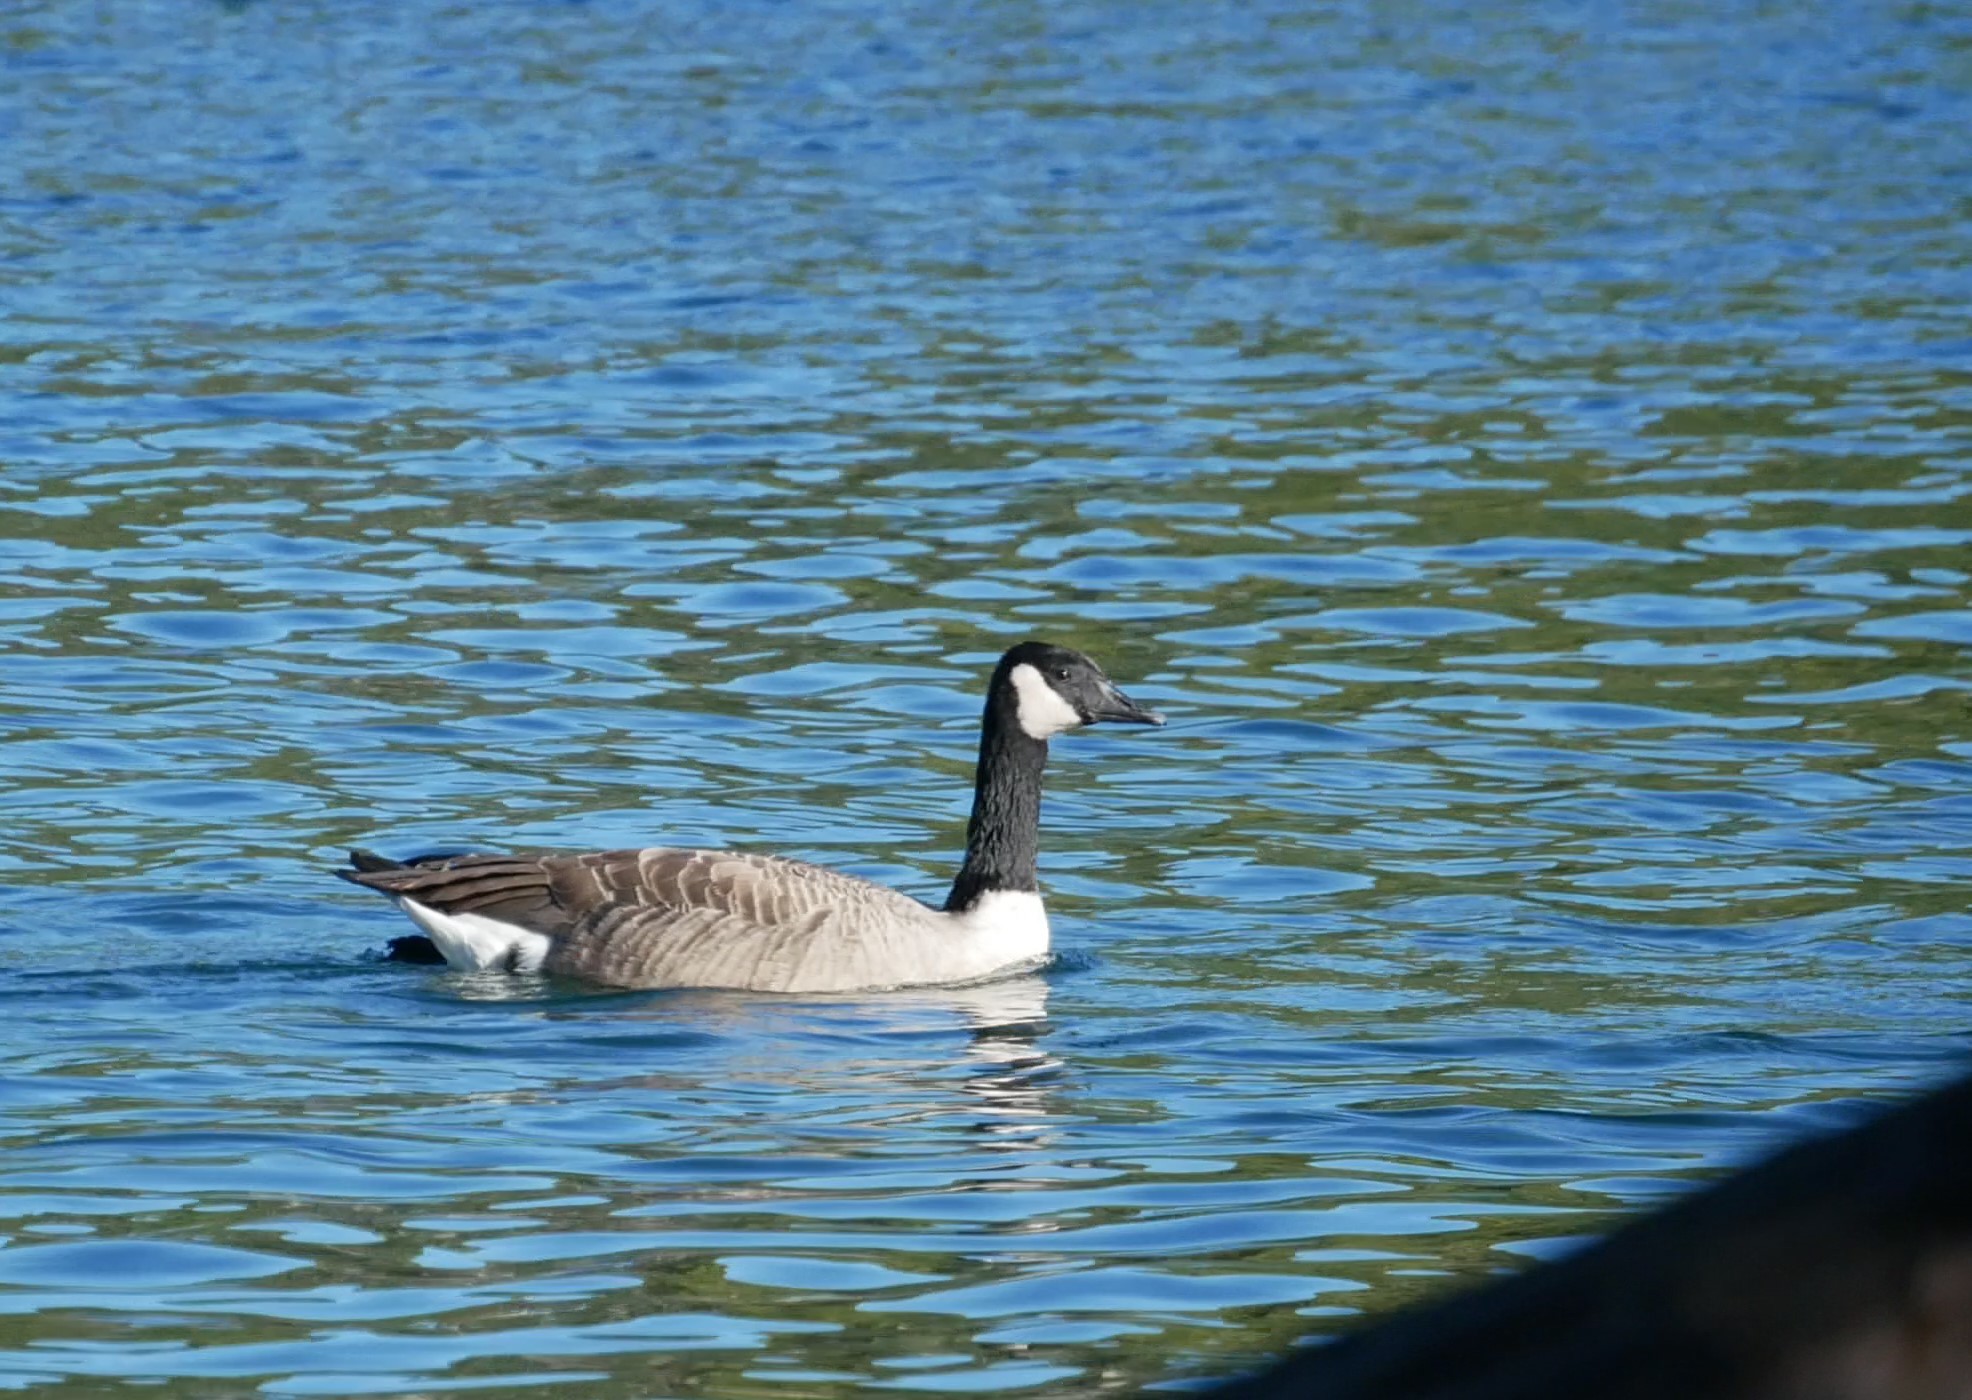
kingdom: Animalia
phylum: Chordata
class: Aves
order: Anseriformes
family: Anatidae
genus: Branta
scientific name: Branta canadensis
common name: Canada goose
